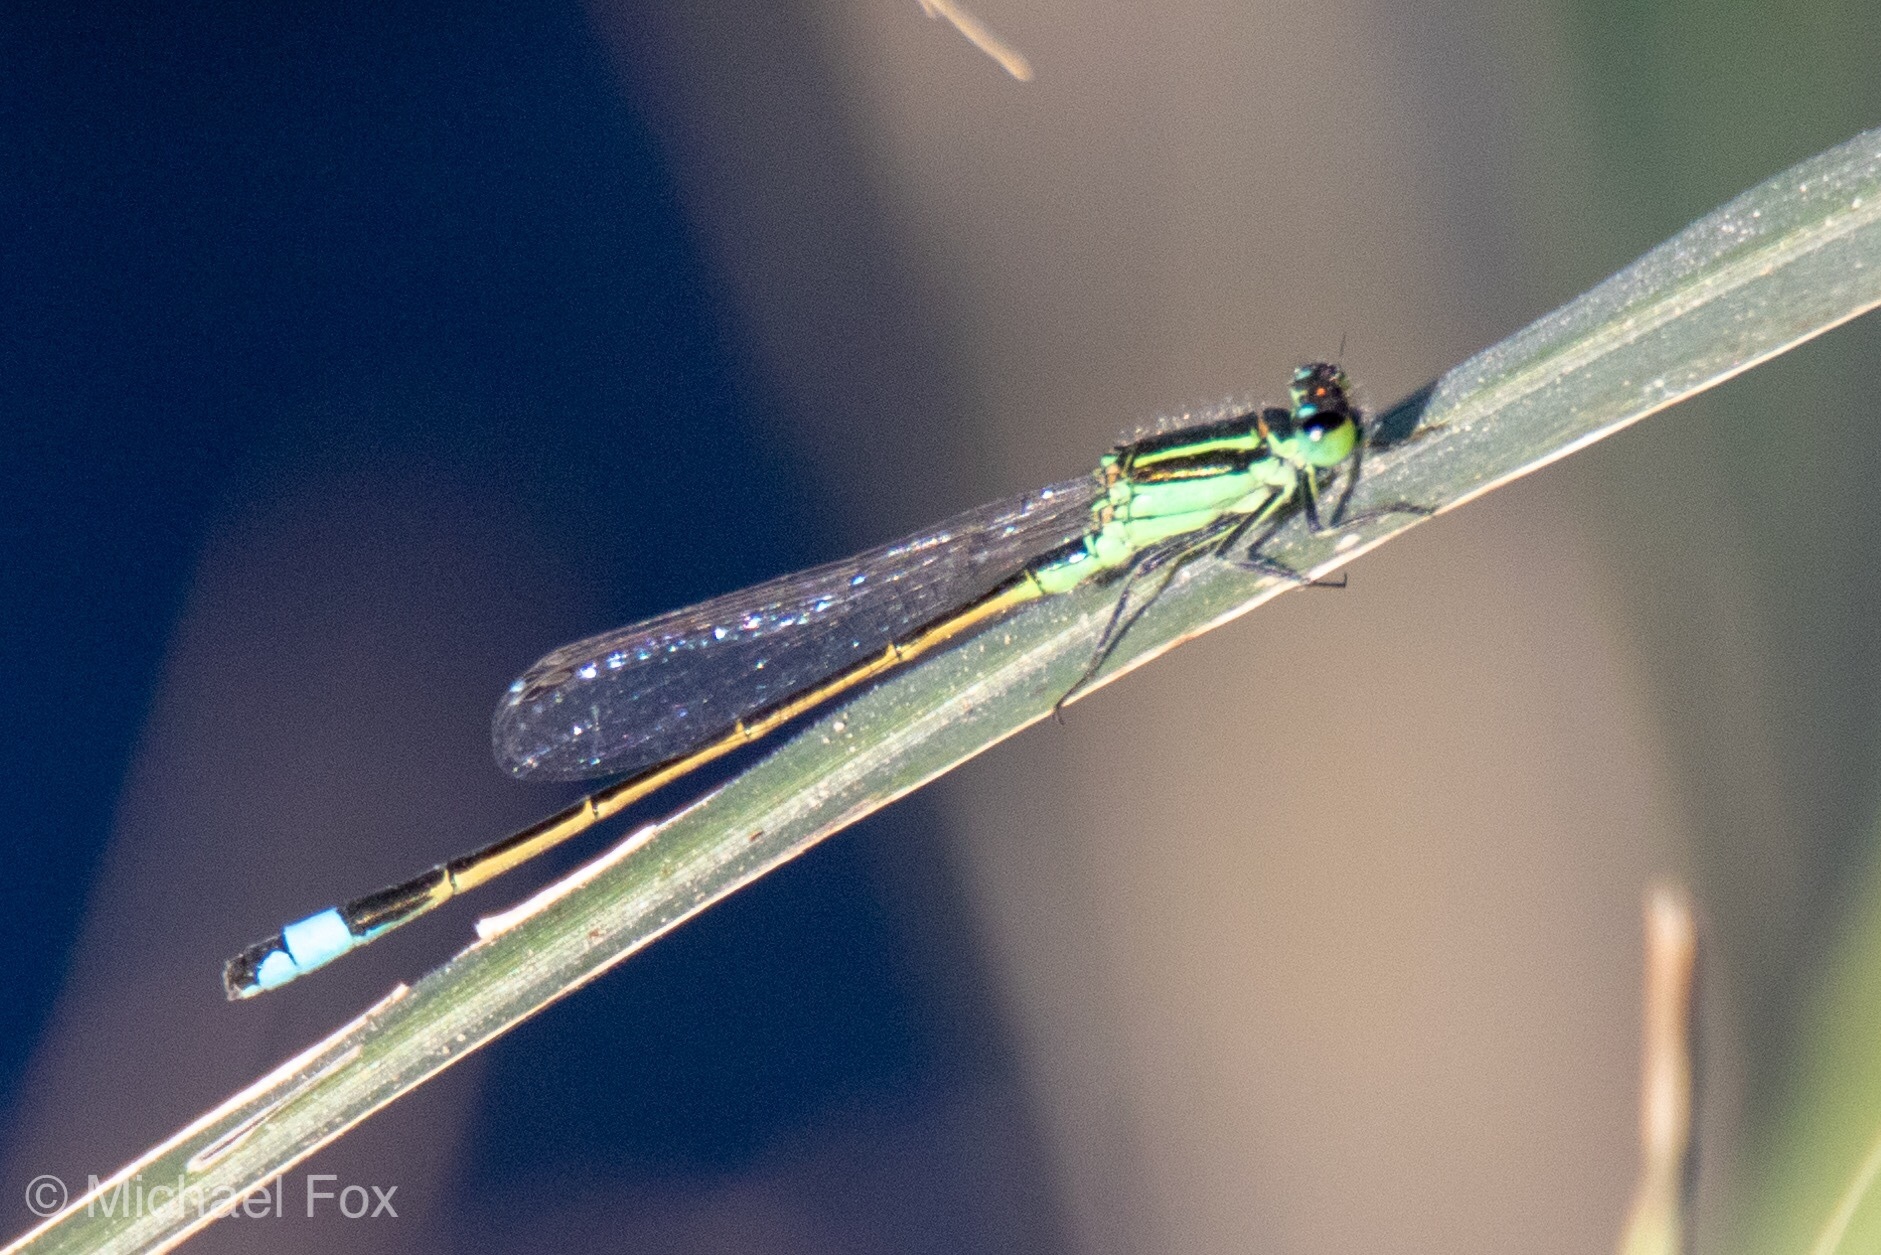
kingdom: Animalia
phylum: Arthropoda
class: Insecta
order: Odonata
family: Coenagrionidae
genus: Ischnura
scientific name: Ischnura ramburii
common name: Rambur's forktail
